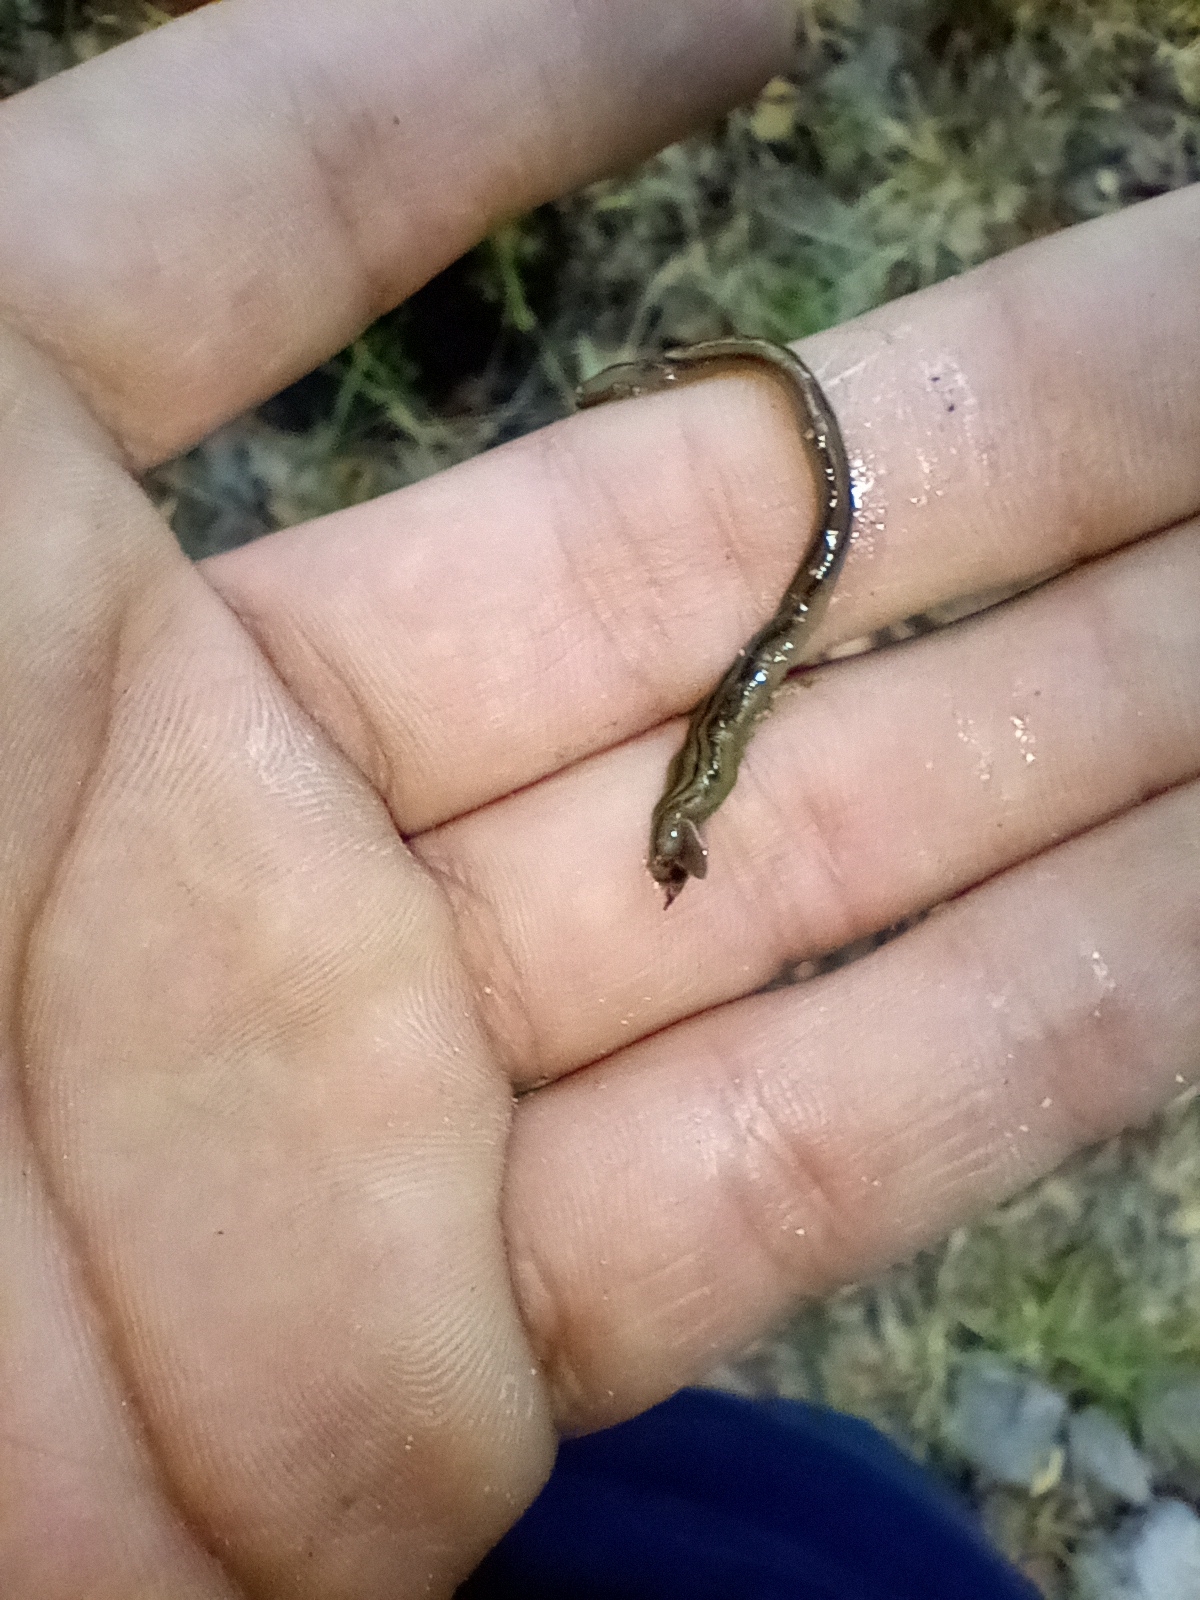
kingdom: Animalia
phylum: Platyhelminthes
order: Tricladida
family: Geoplanidae
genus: Bipalium
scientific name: Bipalium kewense
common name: Hammerhead flatworm
